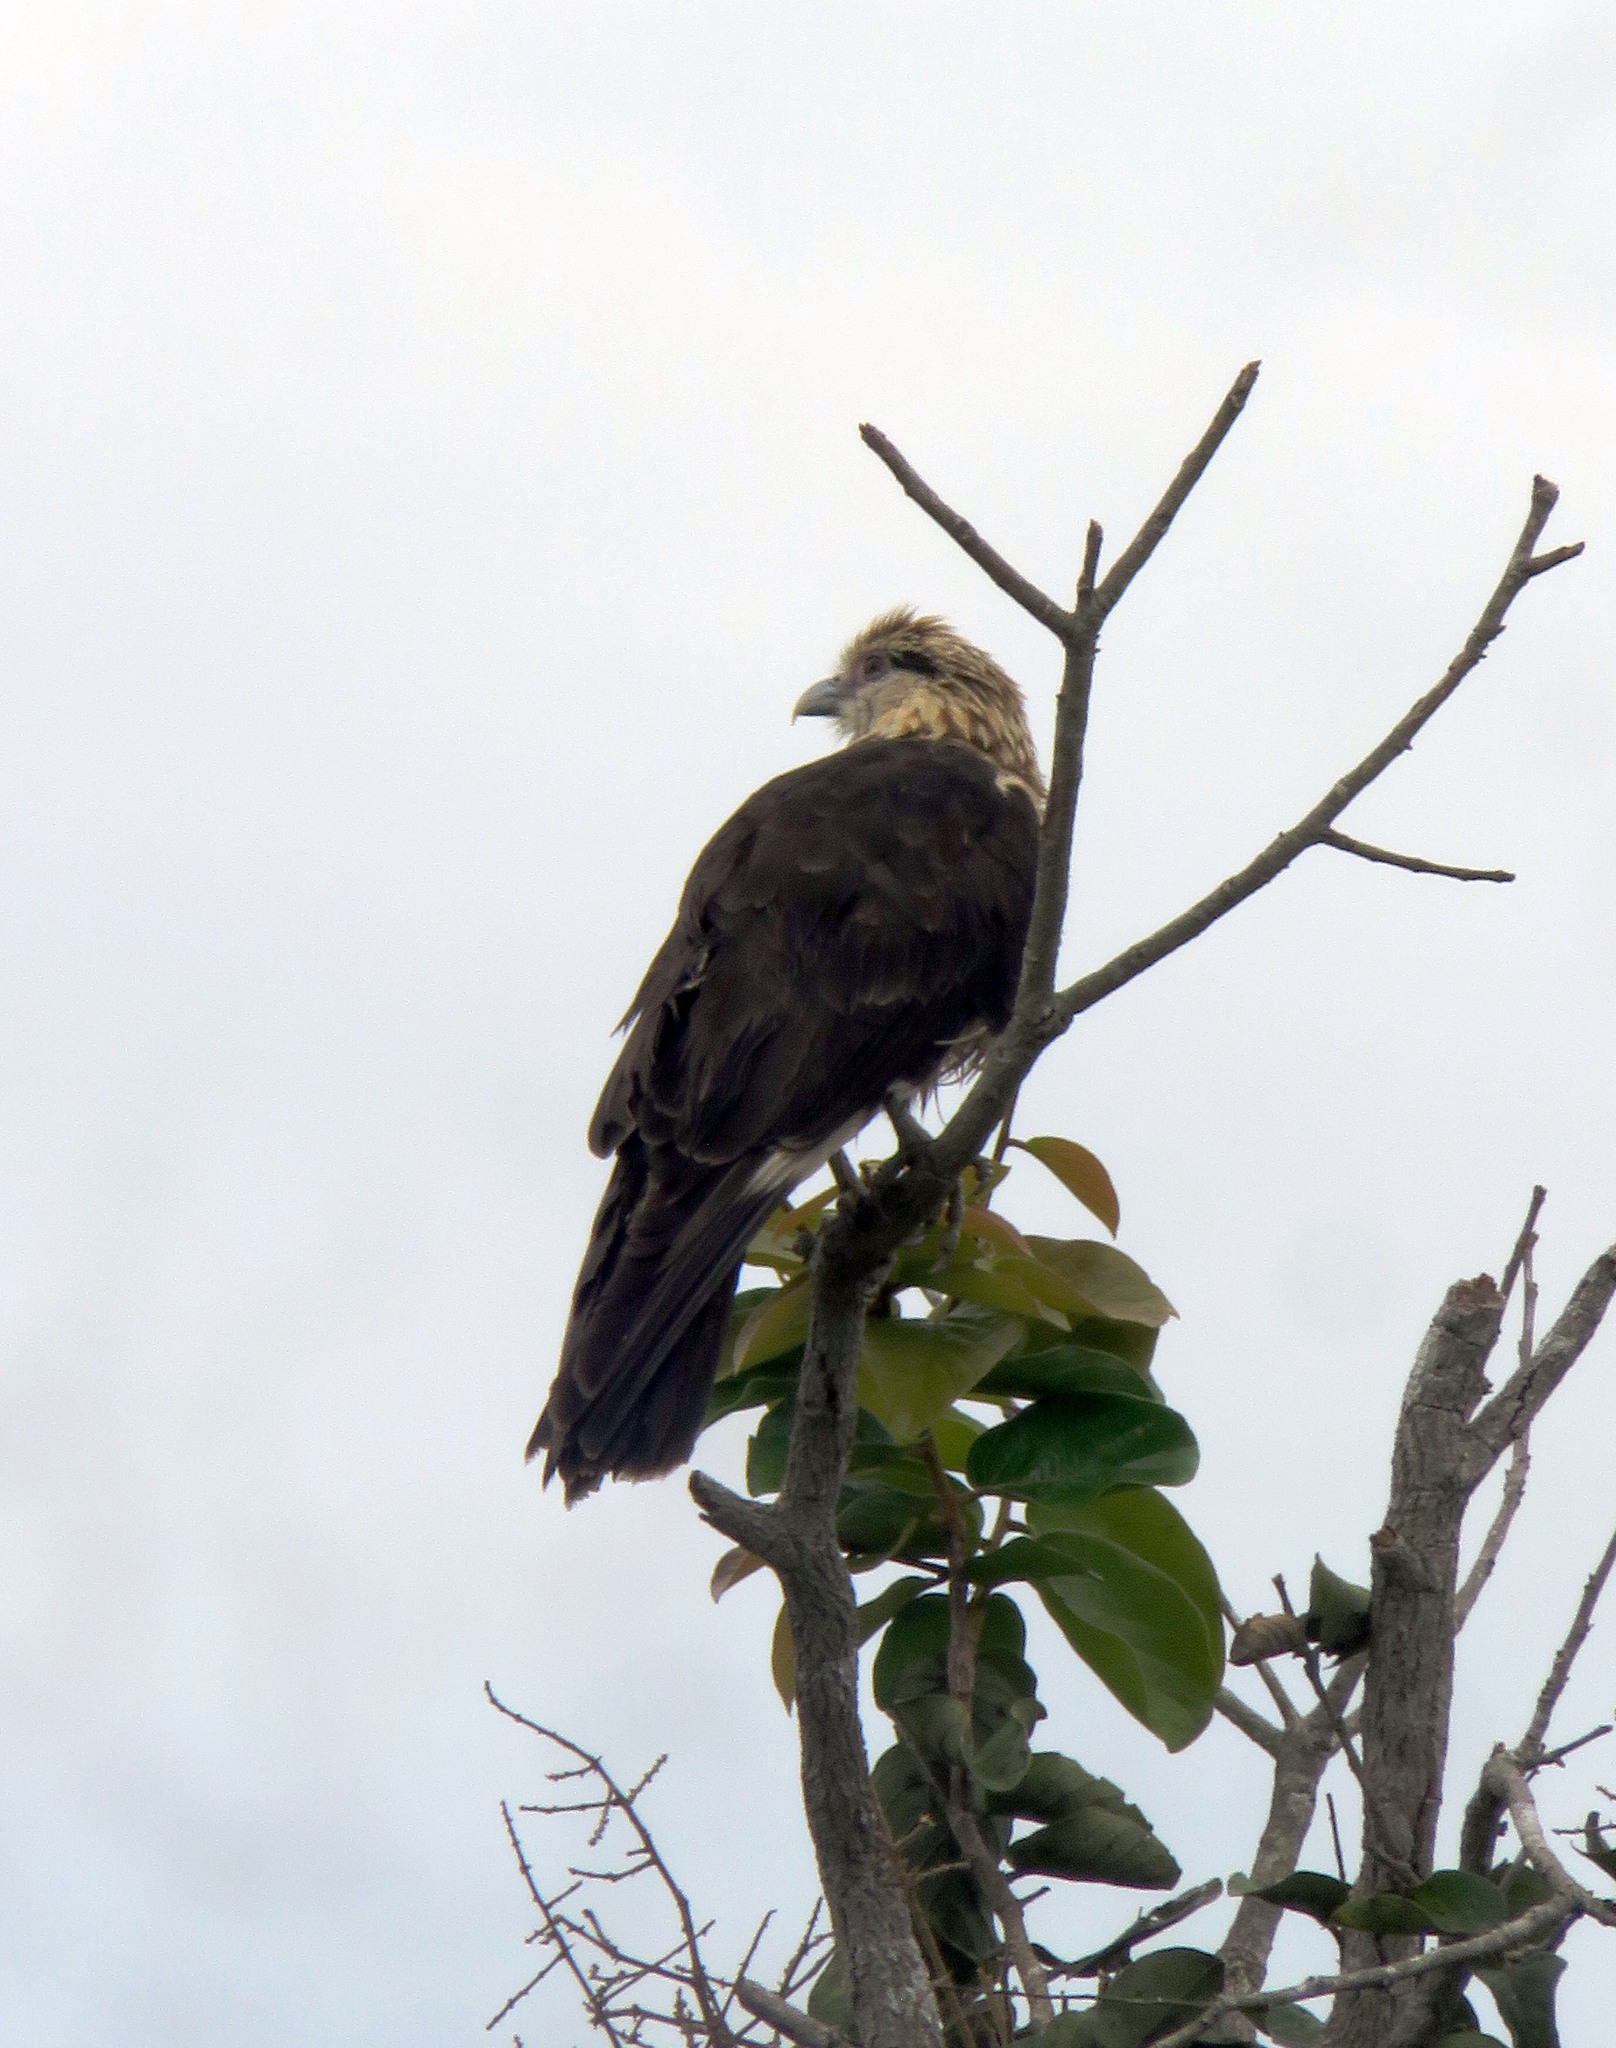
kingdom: Animalia
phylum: Chordata
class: Aves
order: Falconiformes
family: Falconidae
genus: Daptrius
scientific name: Daptrius
